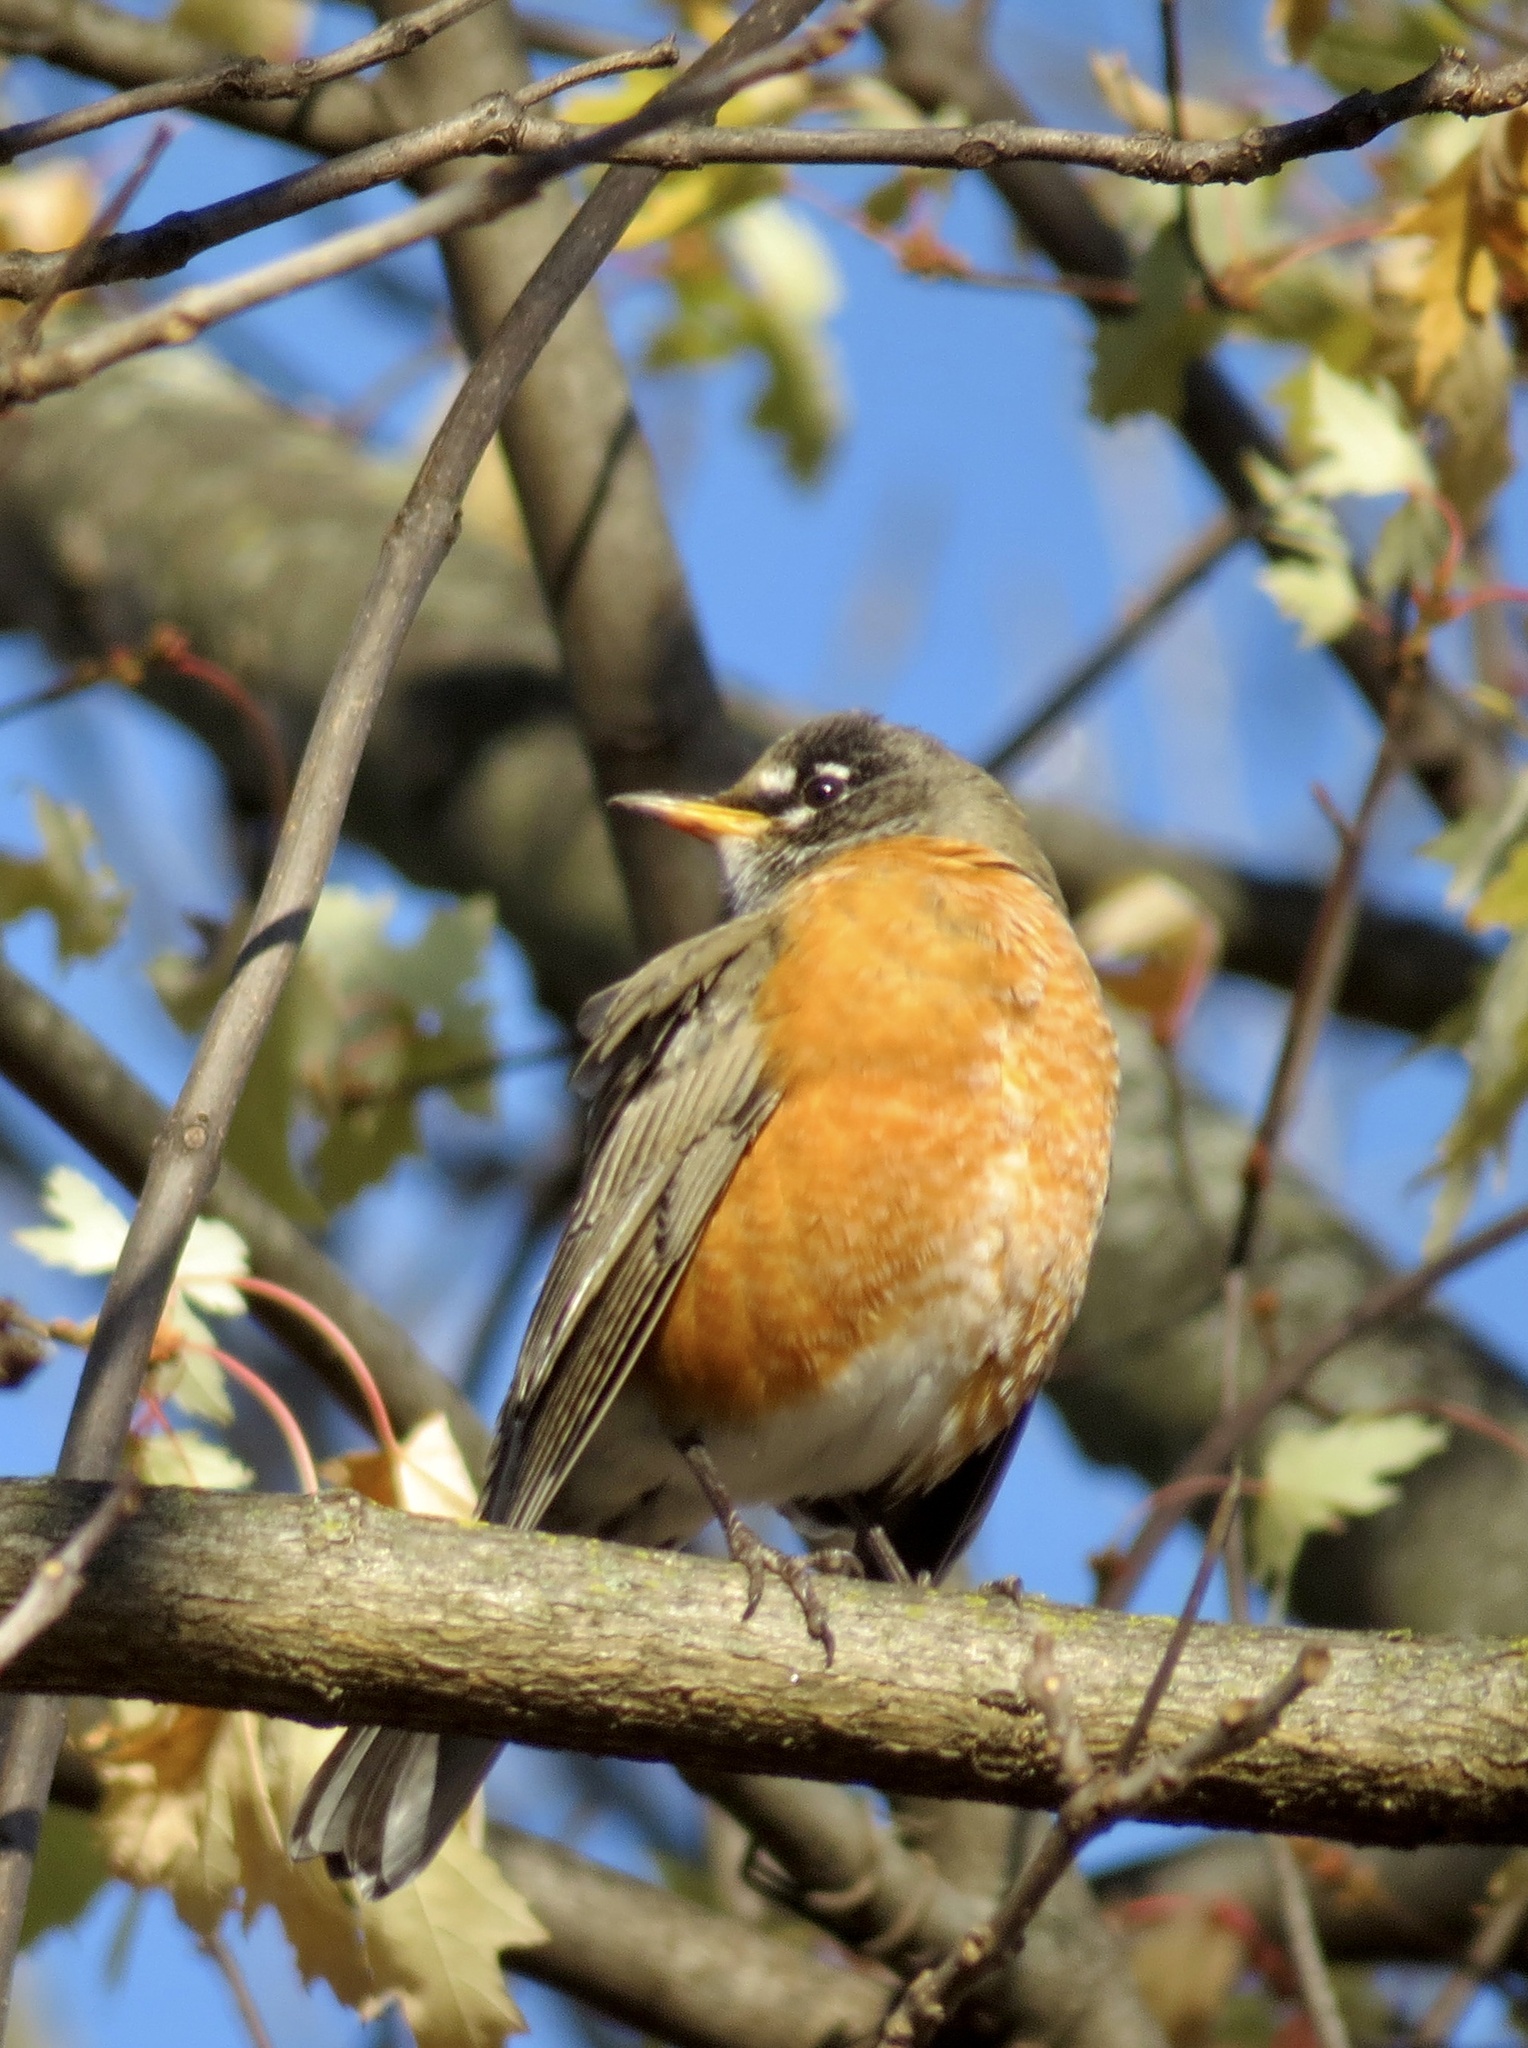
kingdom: Animalia
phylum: Chordata
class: Aves
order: Passeriformes
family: Turdidae
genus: Turdus
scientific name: Turdus migratorius
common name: American robin
